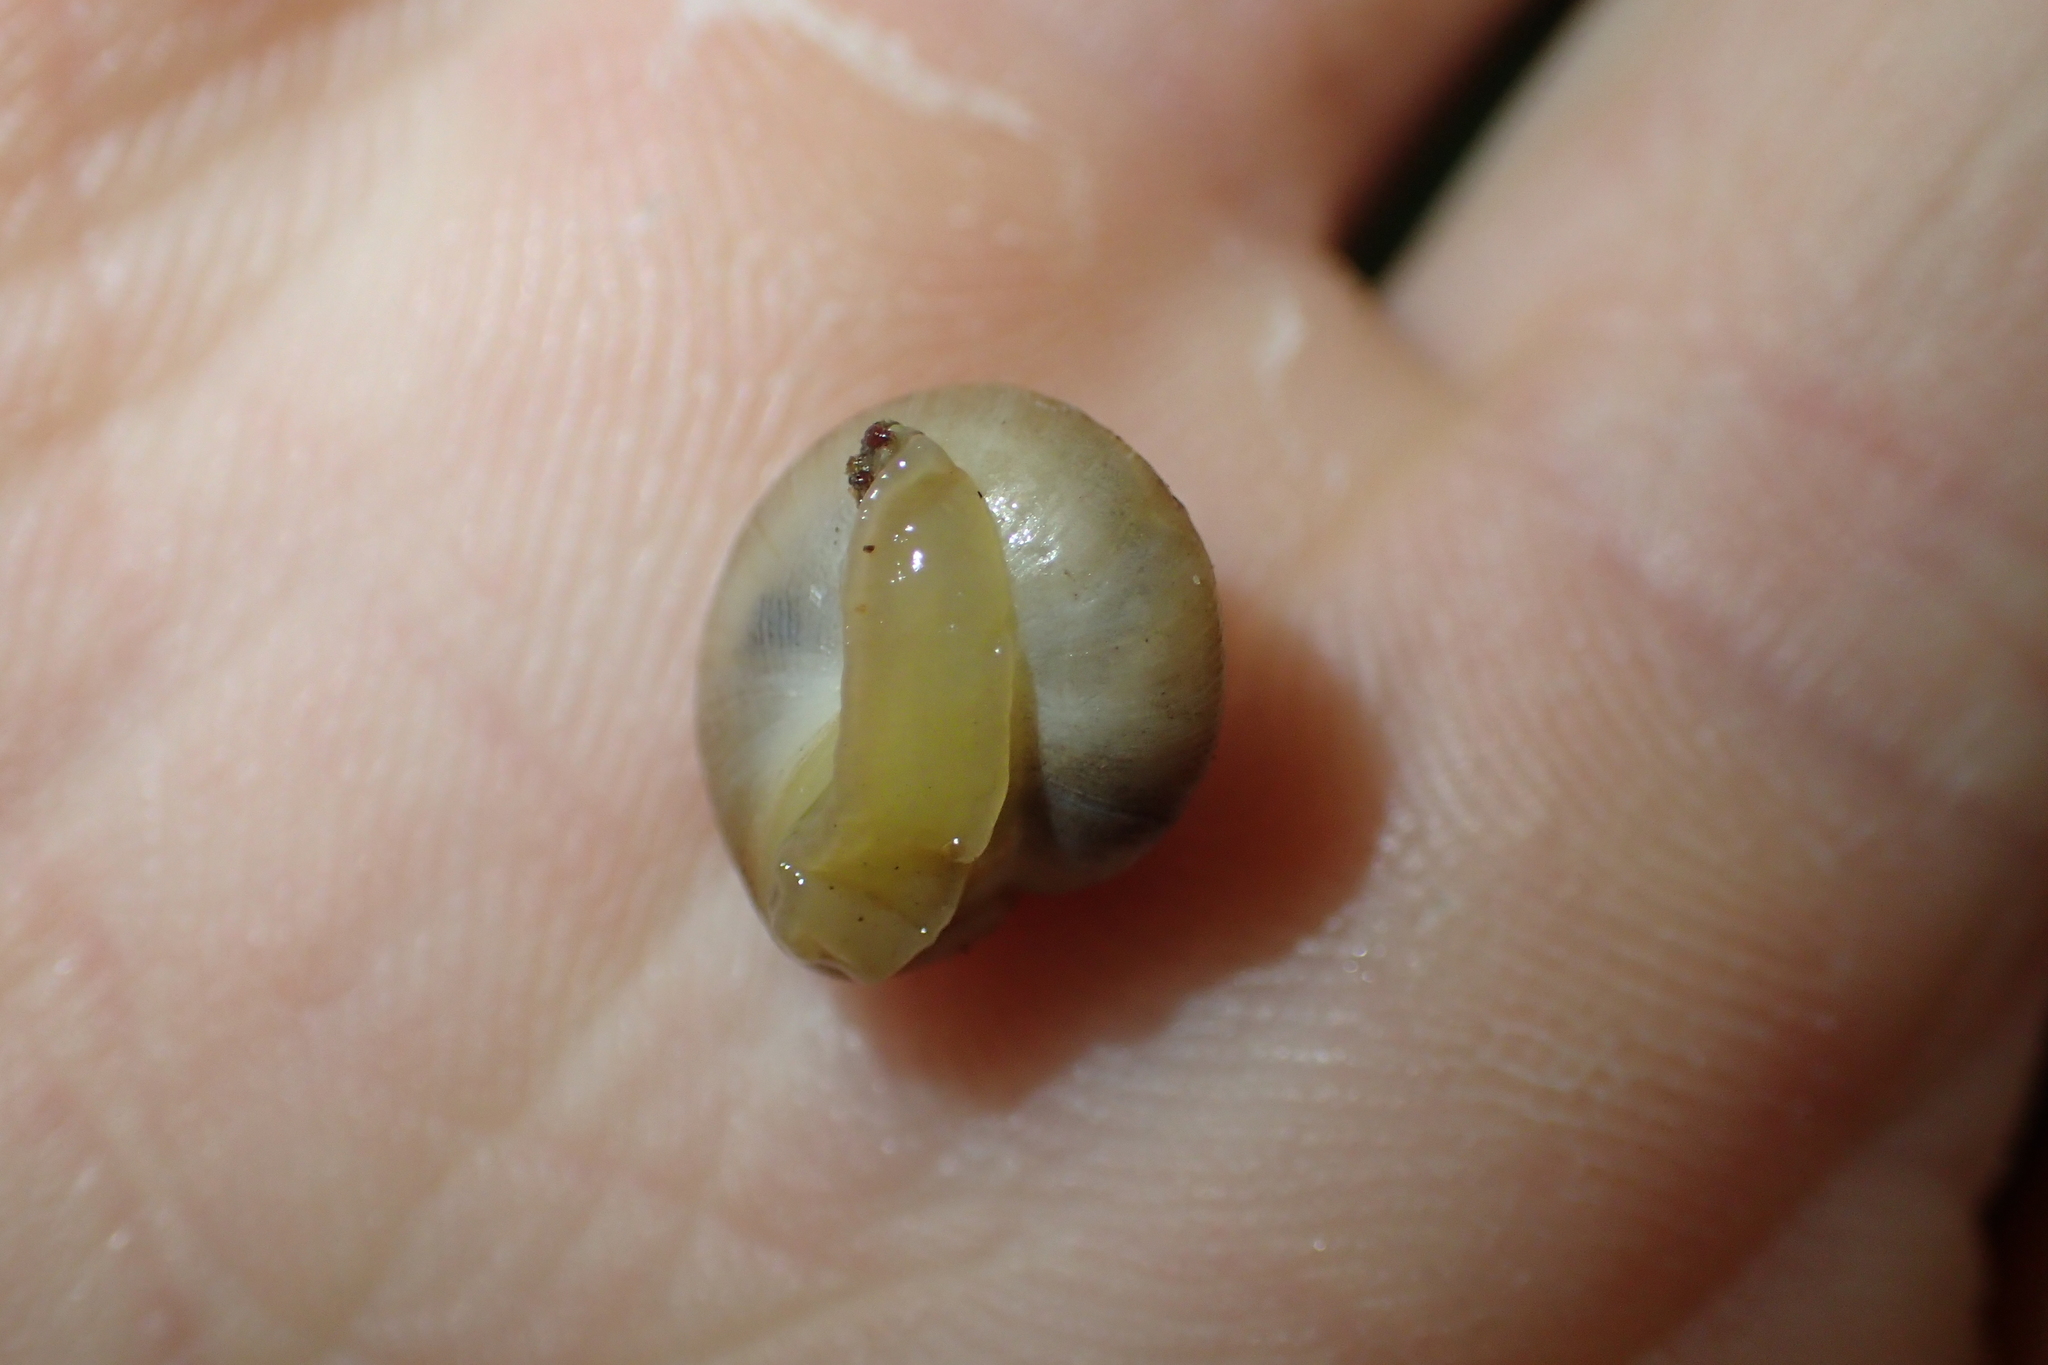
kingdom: Animalia
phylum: Mollusca
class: Gastropoda
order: Stylommatophora
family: Charopidae
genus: Serpho
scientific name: Serpho
